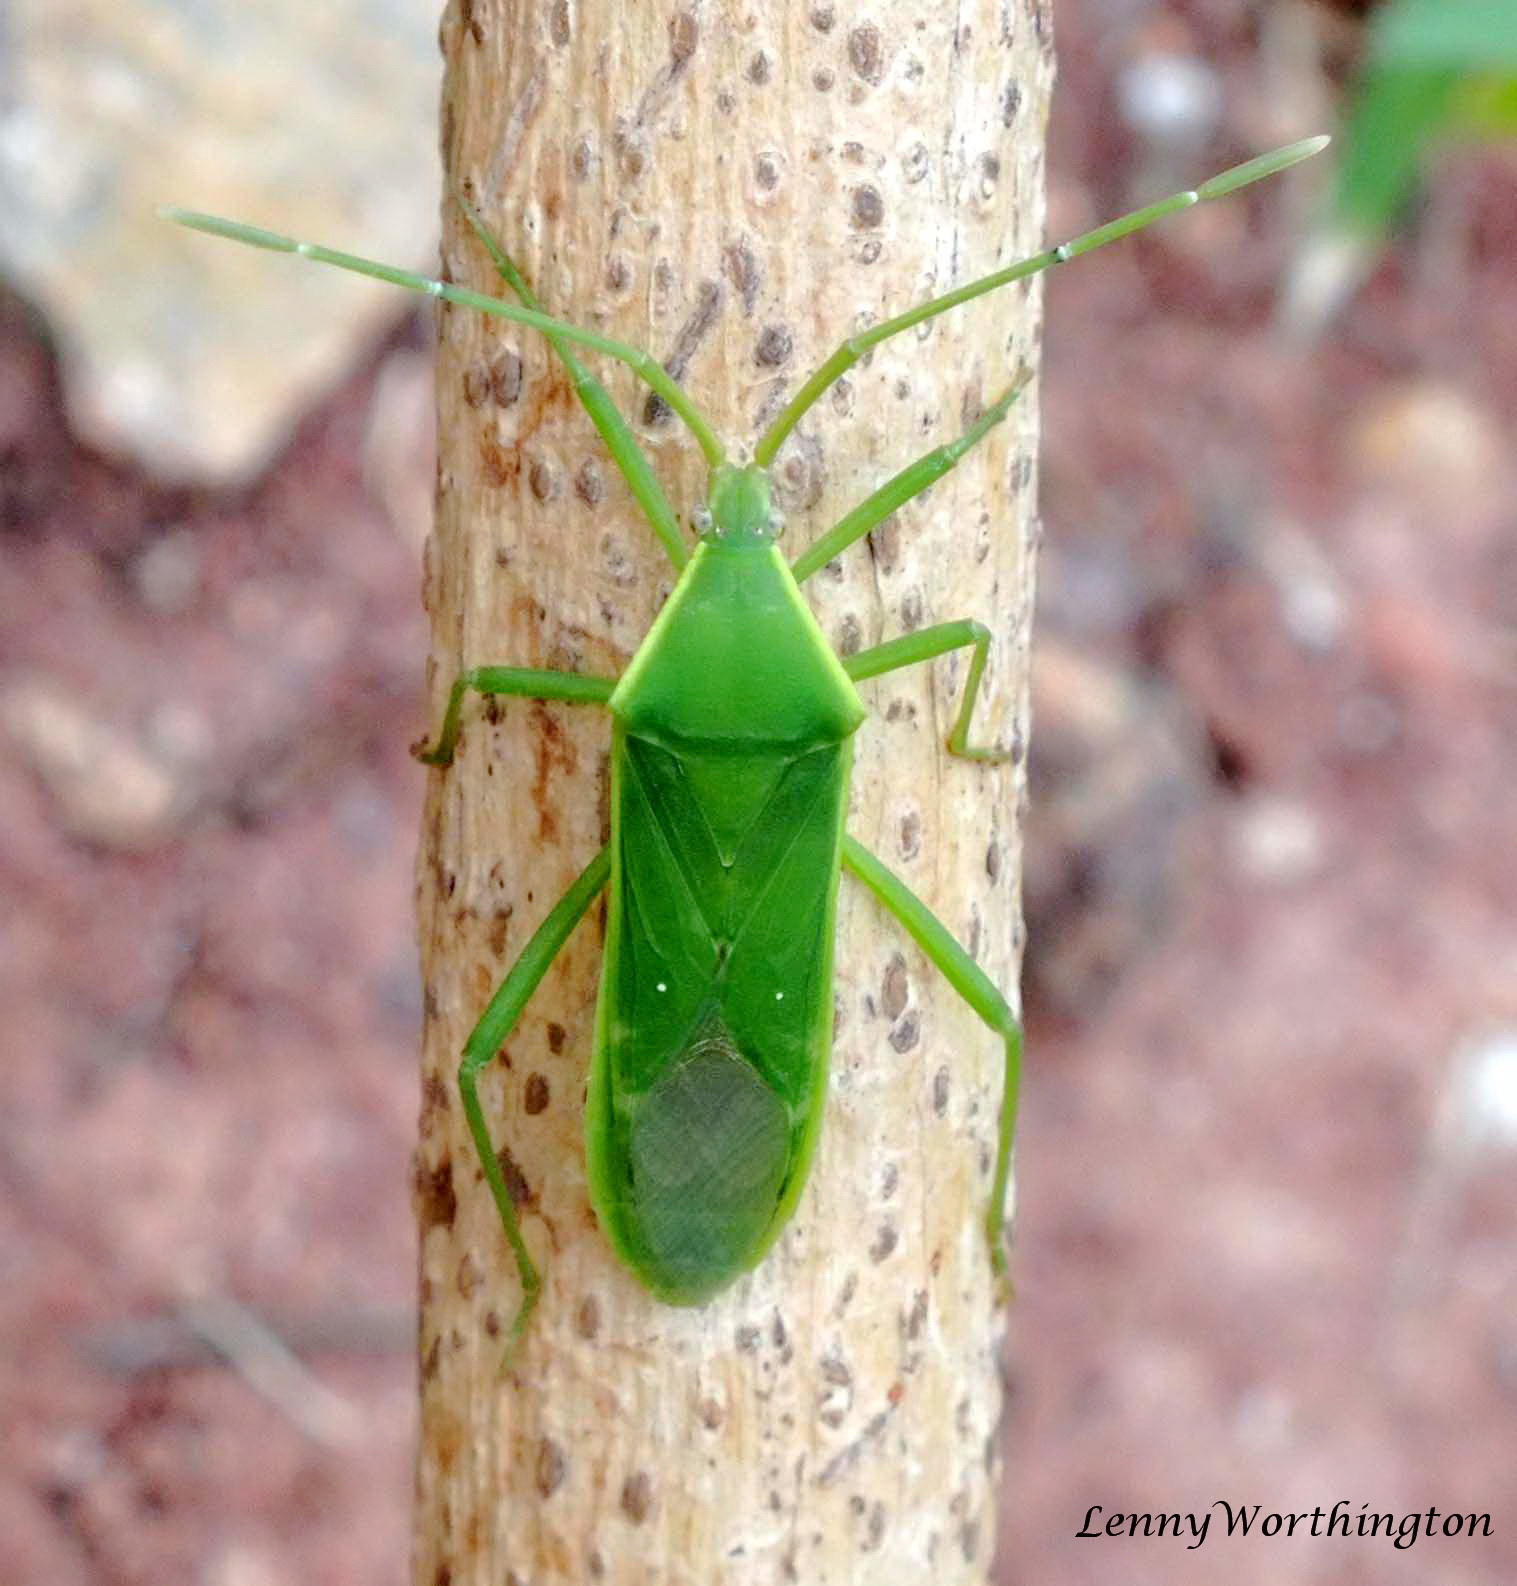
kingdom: Animalia
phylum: Arthropoda
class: Insecta
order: Hemiptera
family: Coreidae
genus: Homoeocerus
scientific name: Homoeocerus lacertosus
